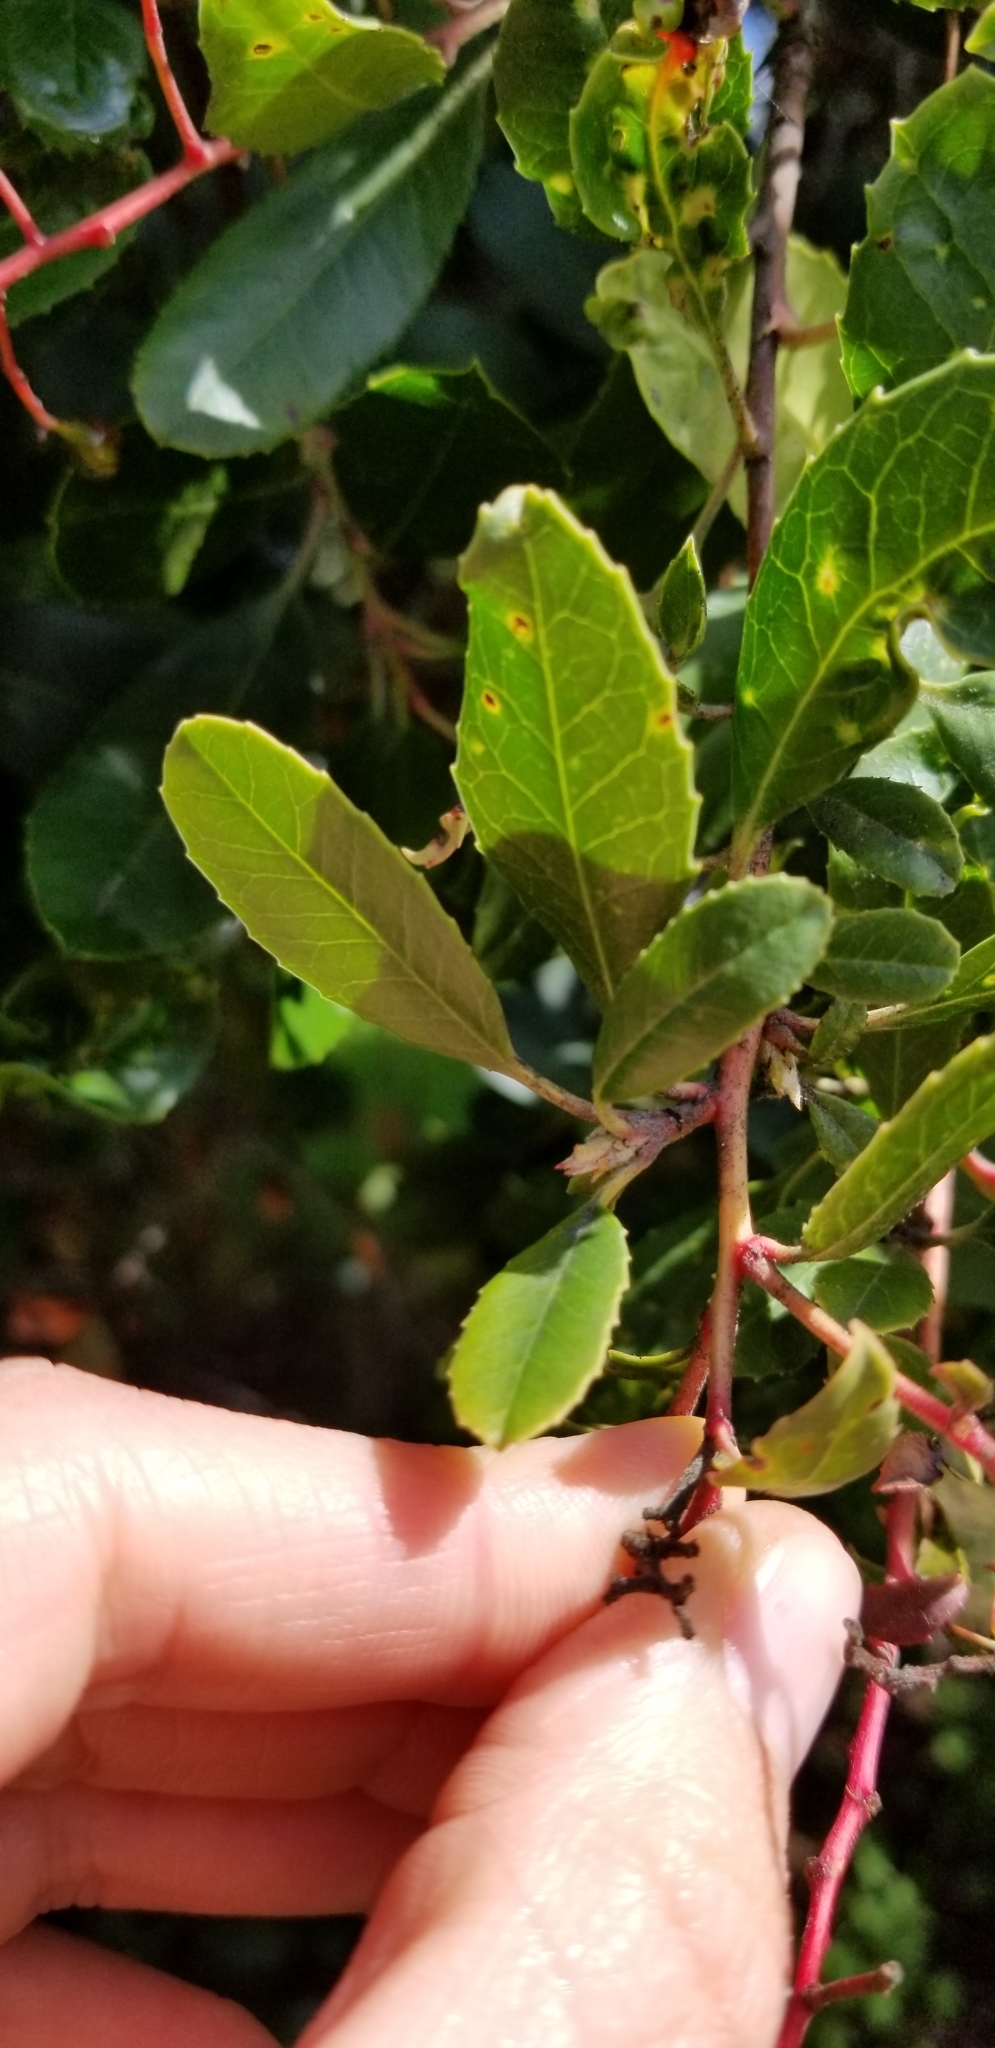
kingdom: Plantae
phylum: Tracheophyta
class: Magnoliopsida
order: Rosales
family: Rosaceae
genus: Heteromeles
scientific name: Heteromeles arbutifolia
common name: California-holly
